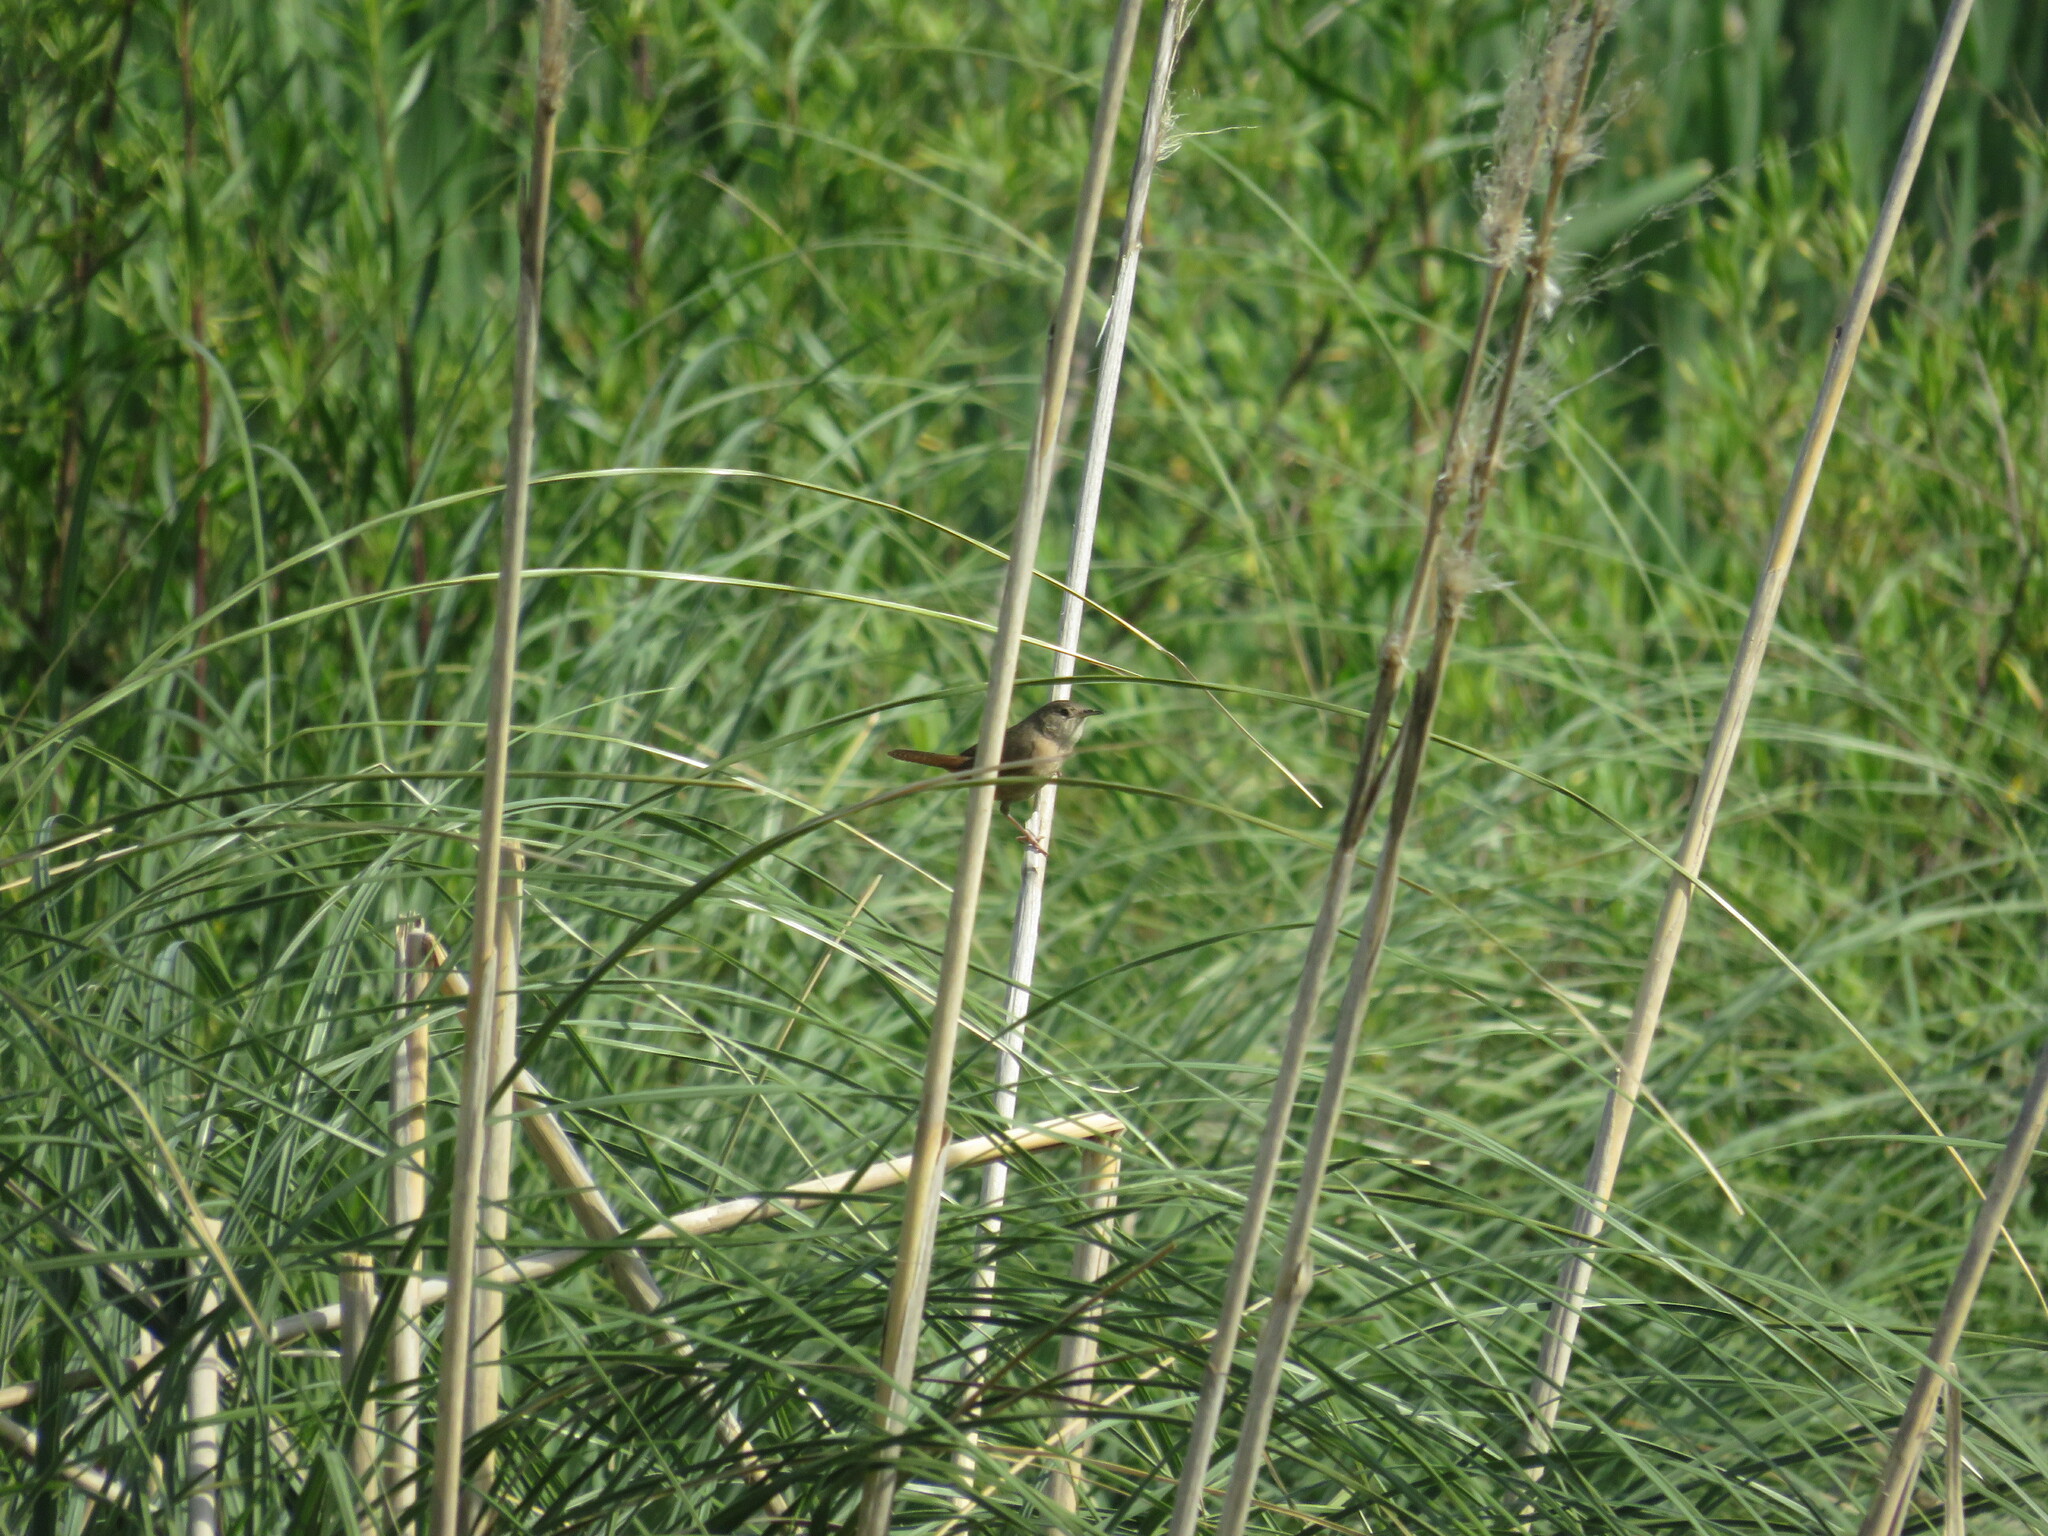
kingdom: Animalia
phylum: Chordata
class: Aves
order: Passeriformes
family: Troglodytidae
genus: Troglodytes
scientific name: Troglodytes aedon
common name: House wren
